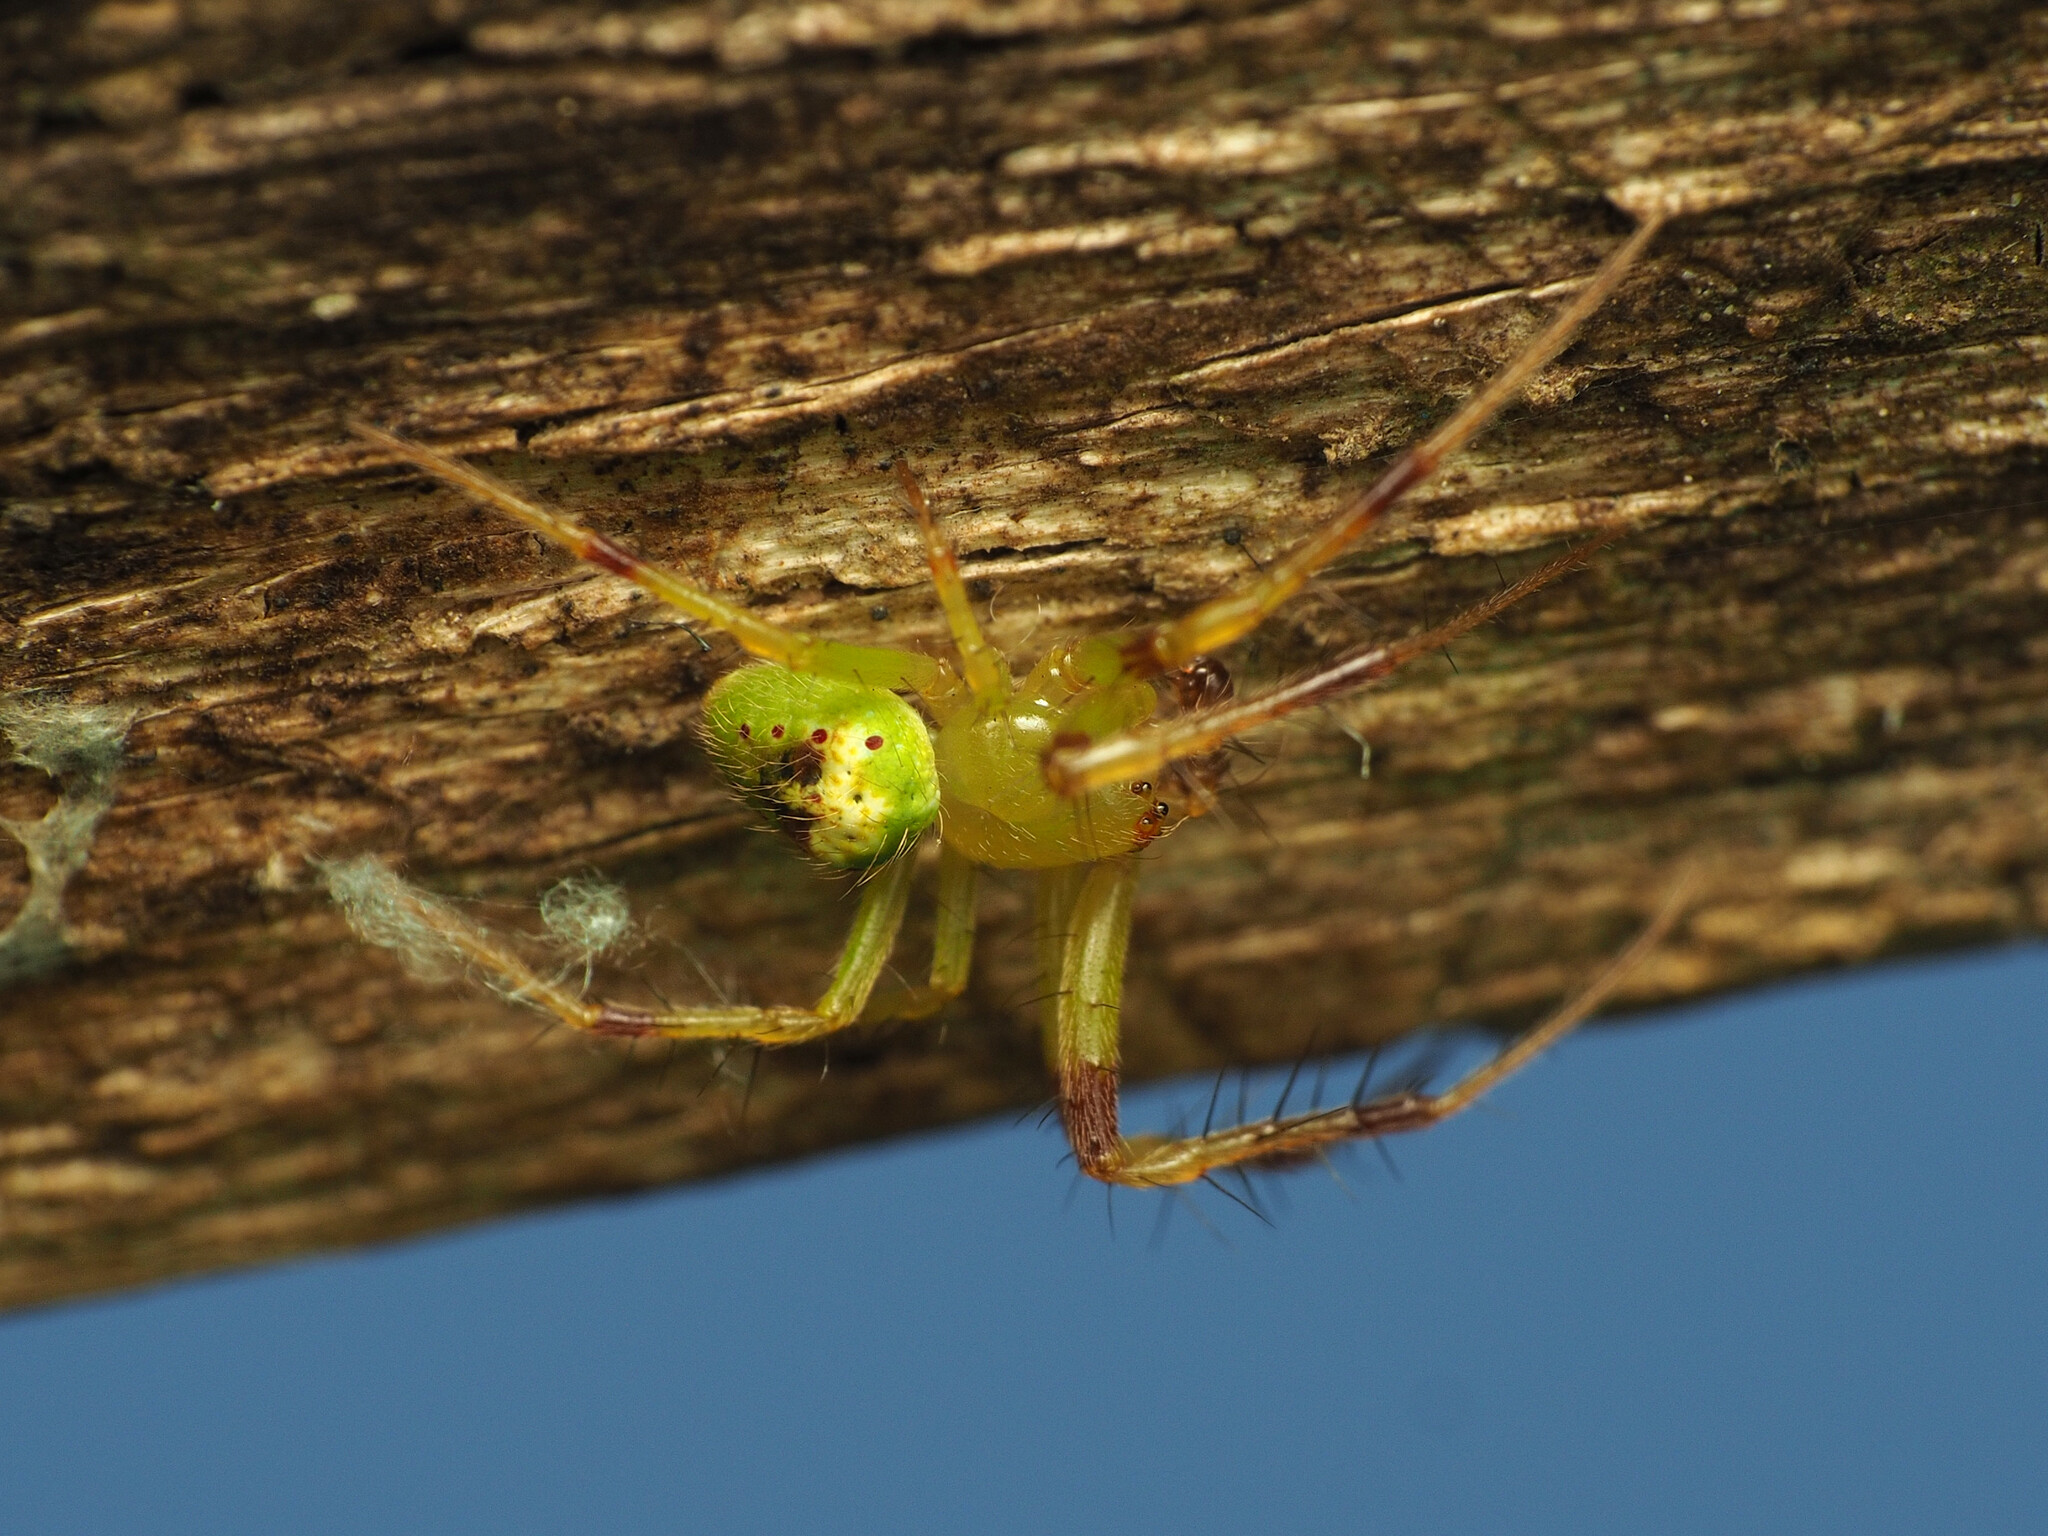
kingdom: Animalia
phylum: Arthropoda
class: Arachnida
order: Araneae
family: Araneidae
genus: Araneus
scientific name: Araneus bonsallae
